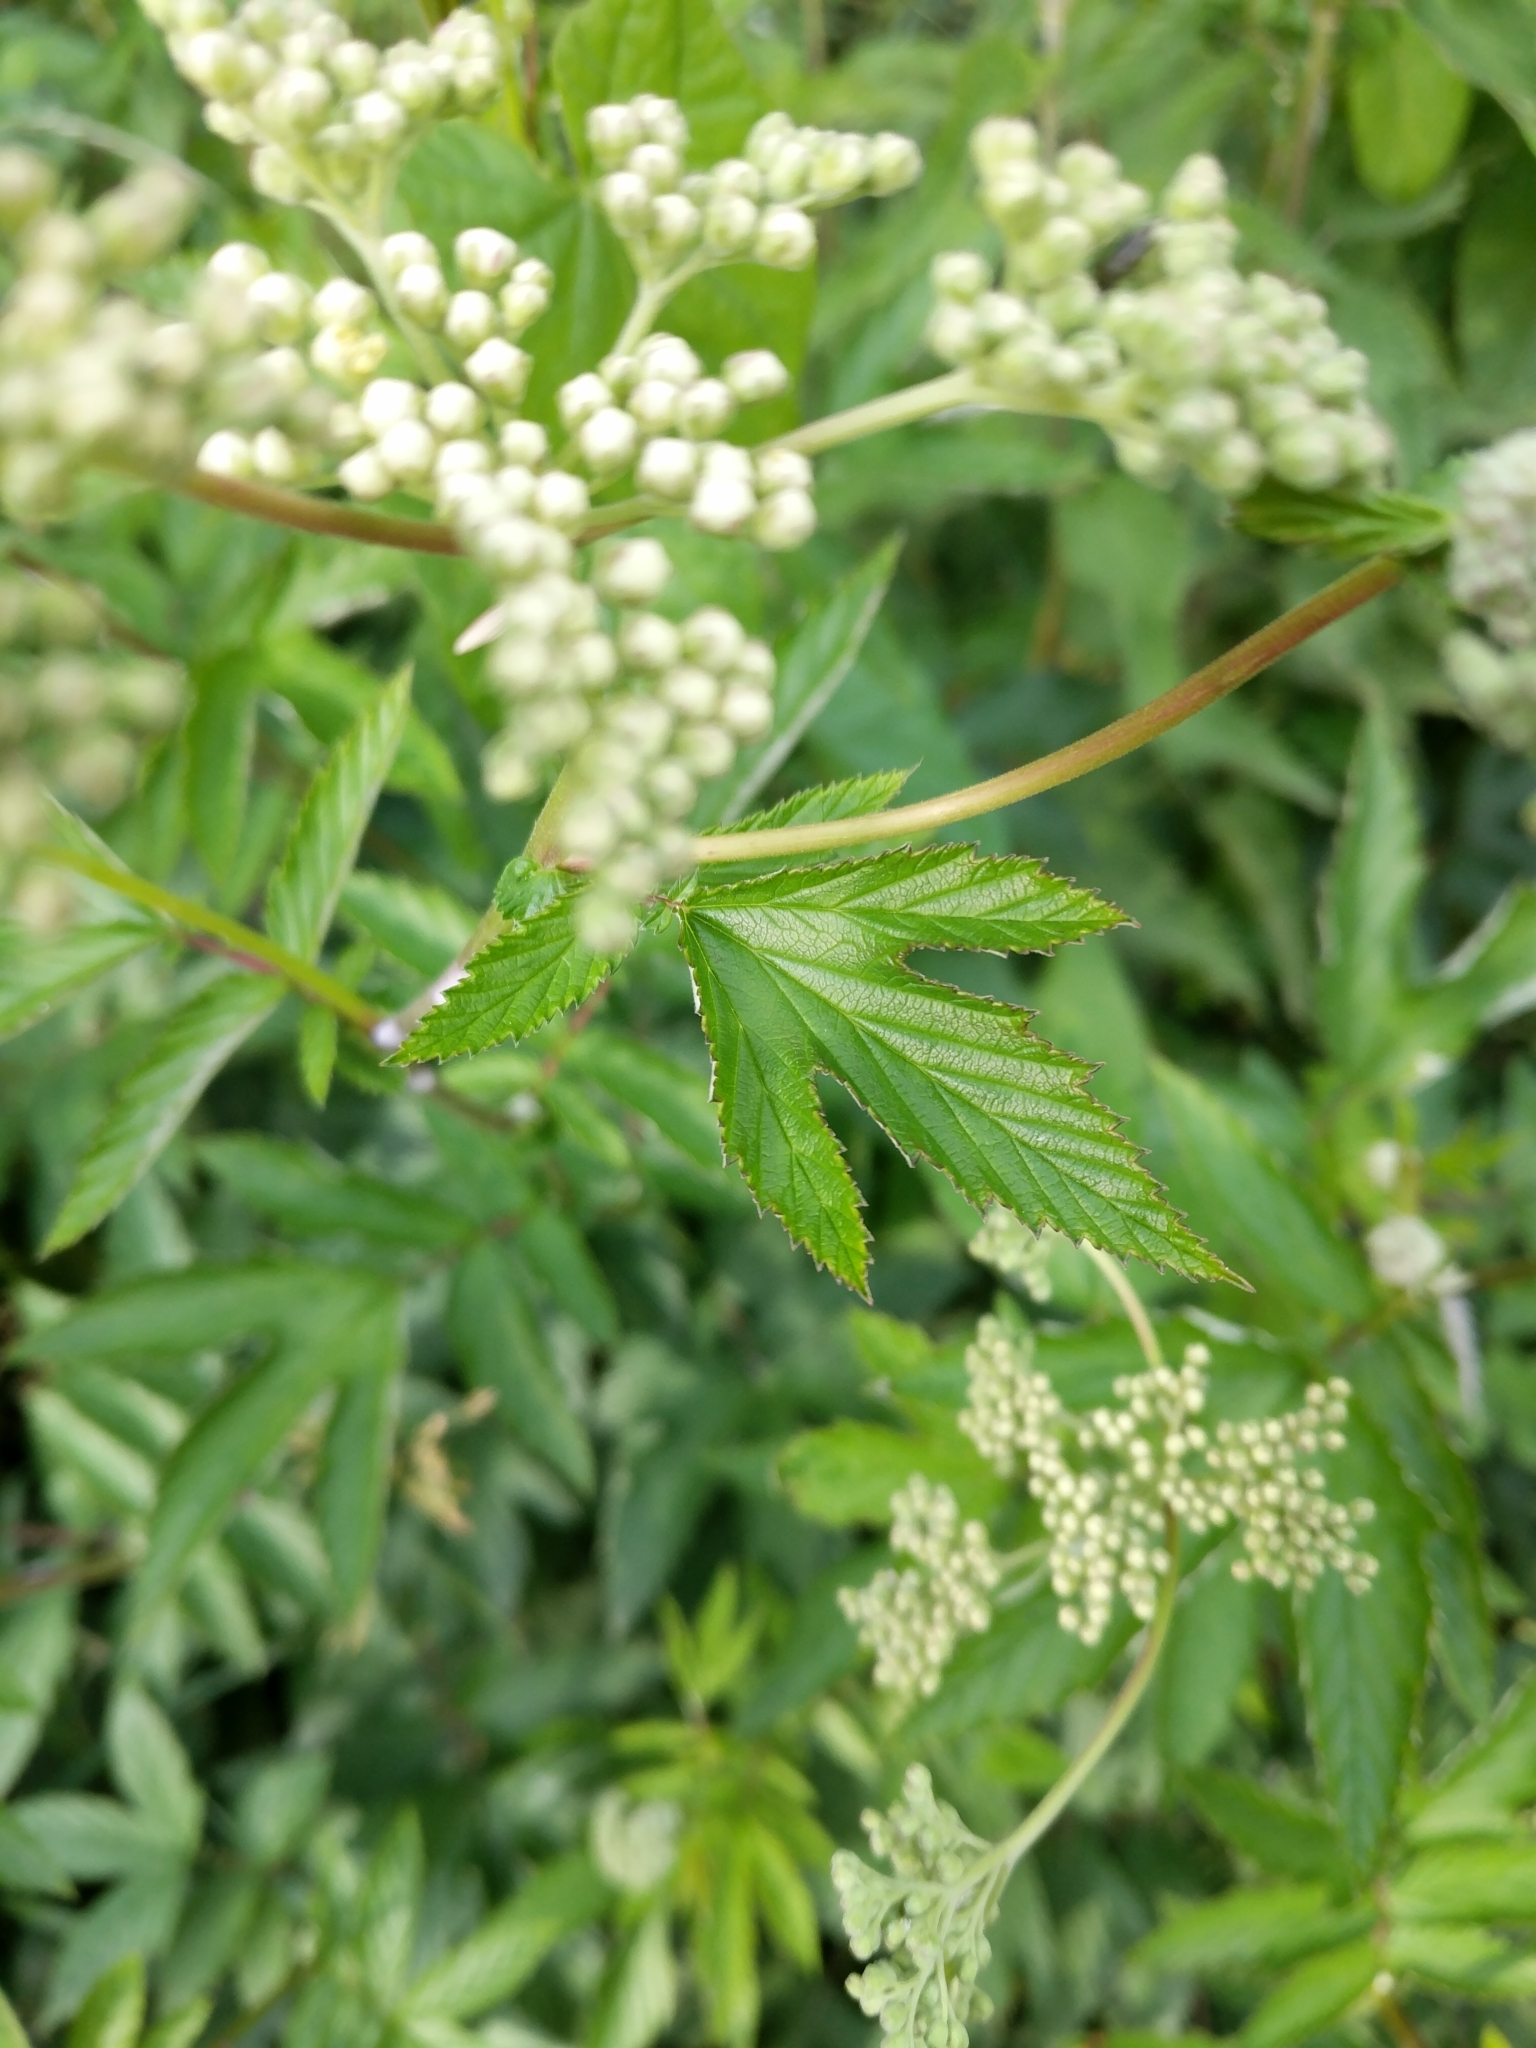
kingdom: Plantae
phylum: Tracheophyta
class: Magnoliopsida
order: Rosales
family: Rosaceae
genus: Filipendula
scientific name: Filipendula ulmaria
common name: Meadowsweet
